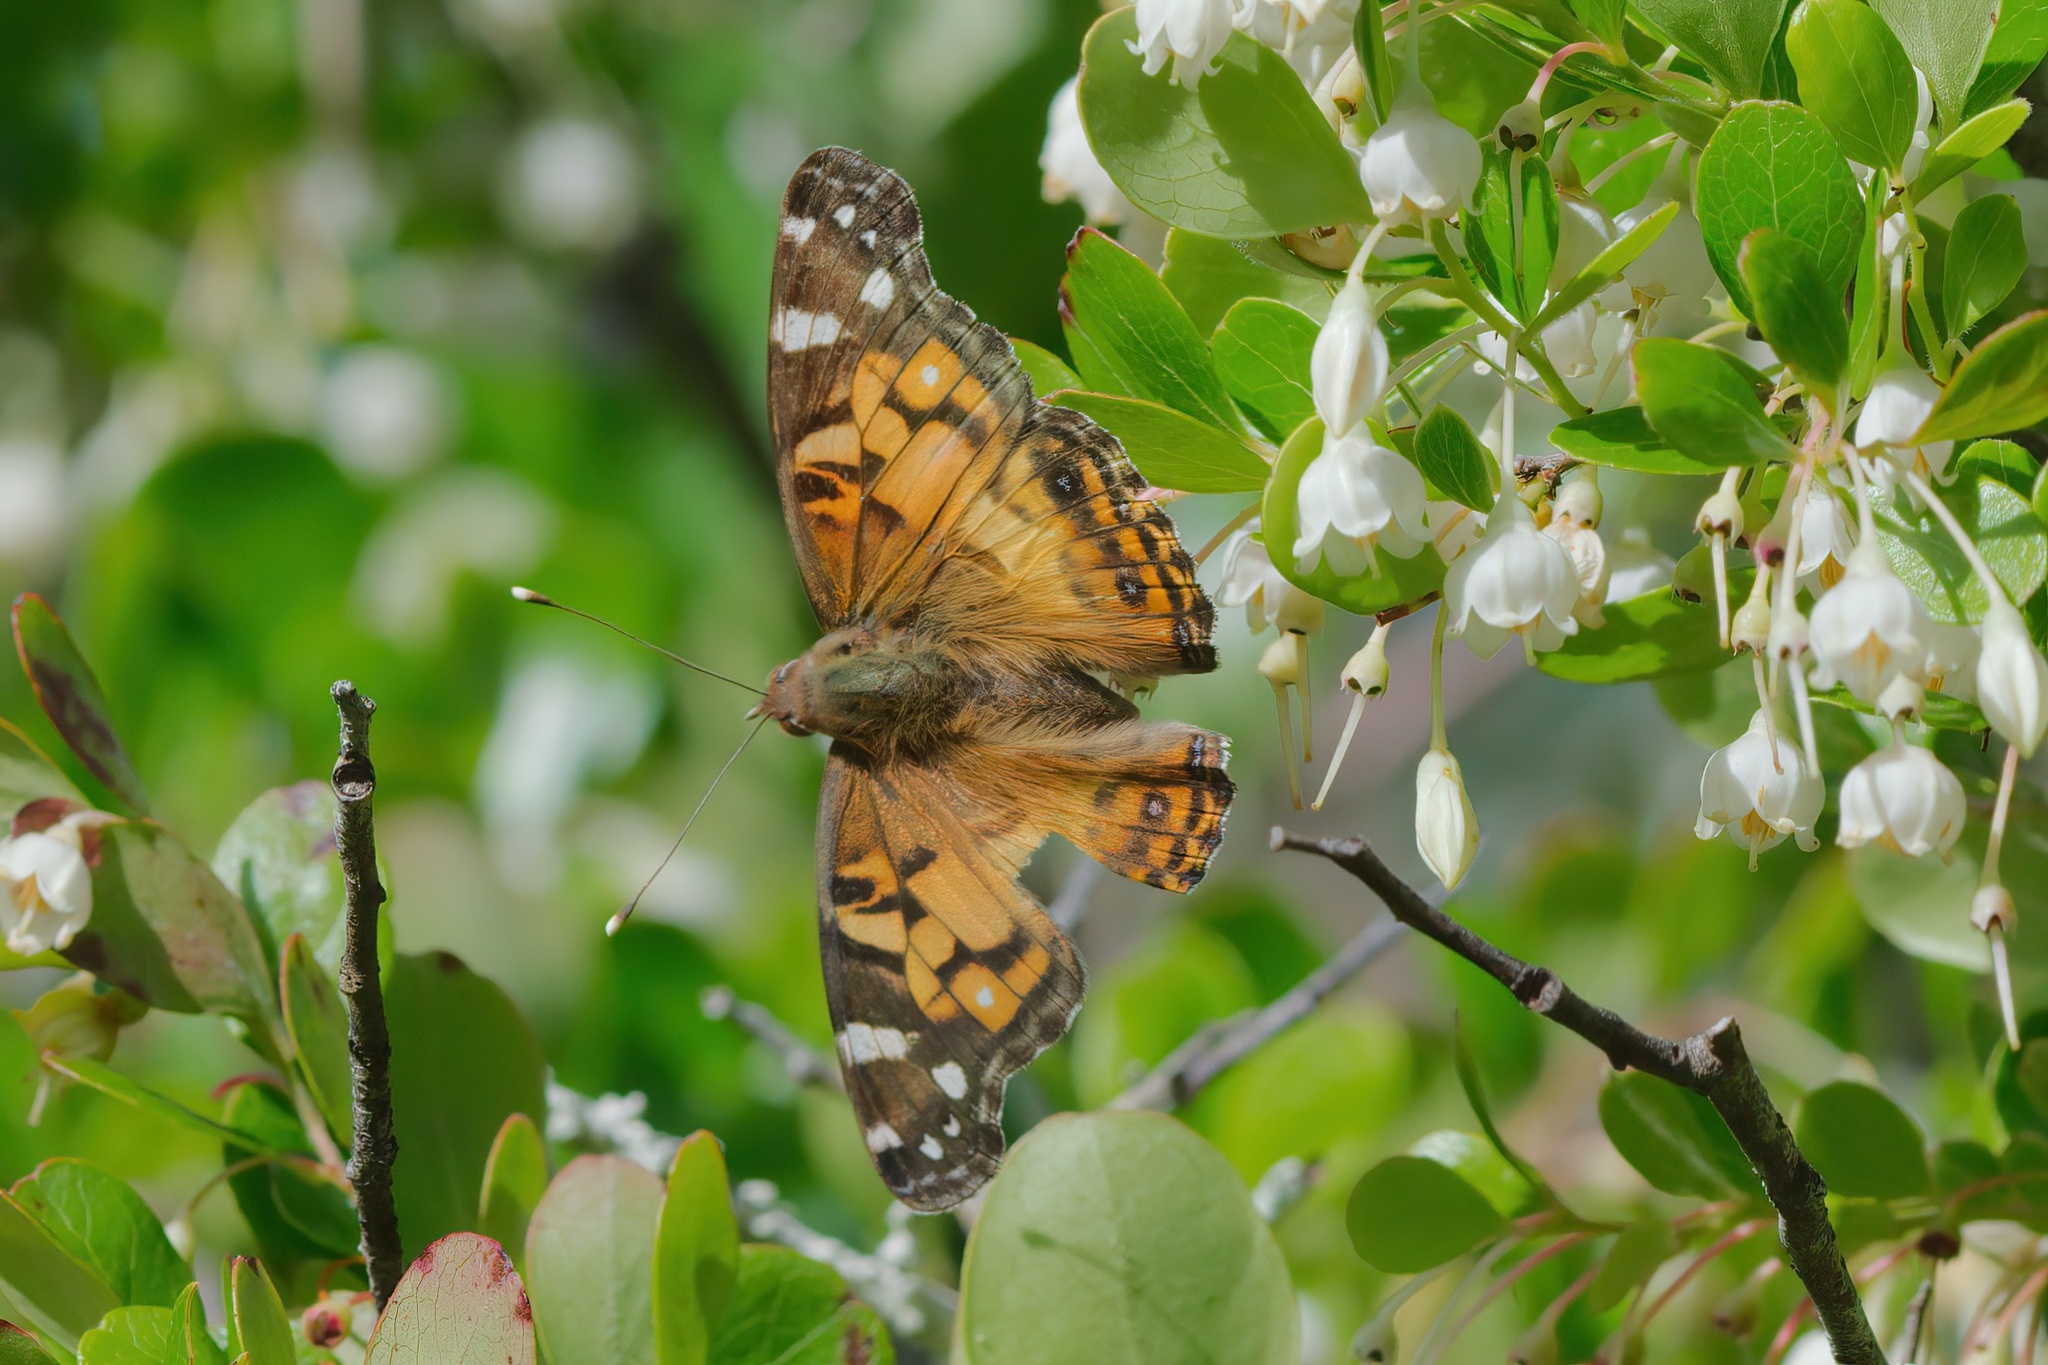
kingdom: Animalia
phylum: Arthropoda
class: Insecta
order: Lepidoptera
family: Nymphalidae
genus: Vanessa
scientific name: Vanessa virginiensis
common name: American lady
